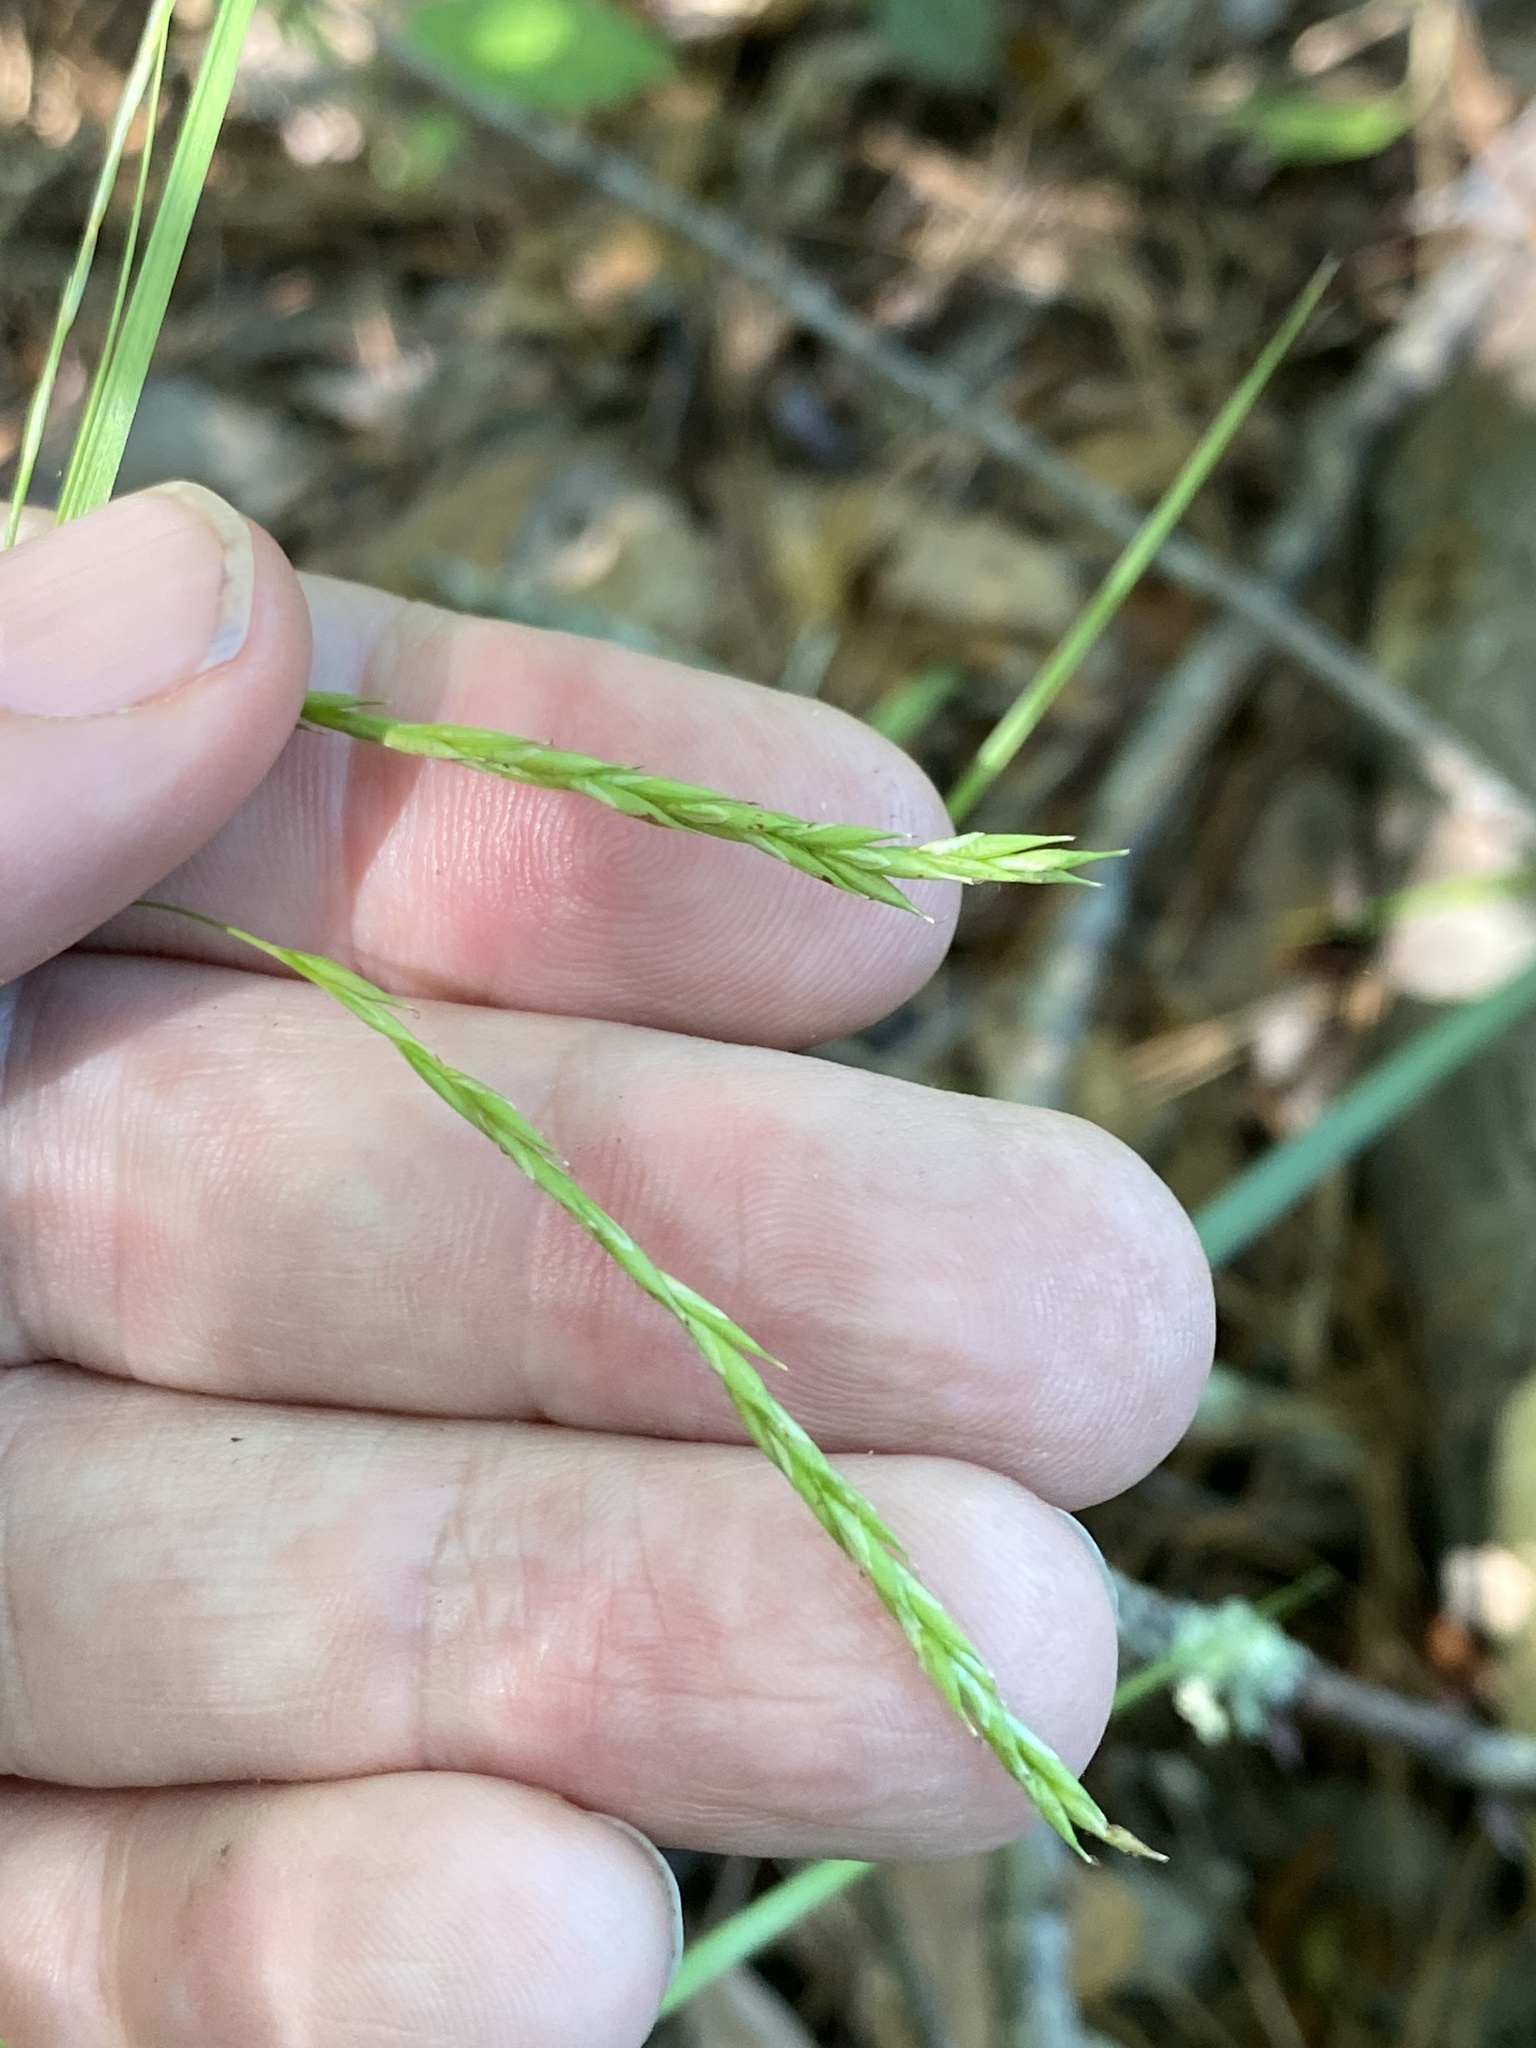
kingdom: Plantae
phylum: Tracheophyta
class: Liliopsida
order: Poales
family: Cyperaceae
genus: Carex
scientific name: Carex debilis
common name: White-edge sedge
